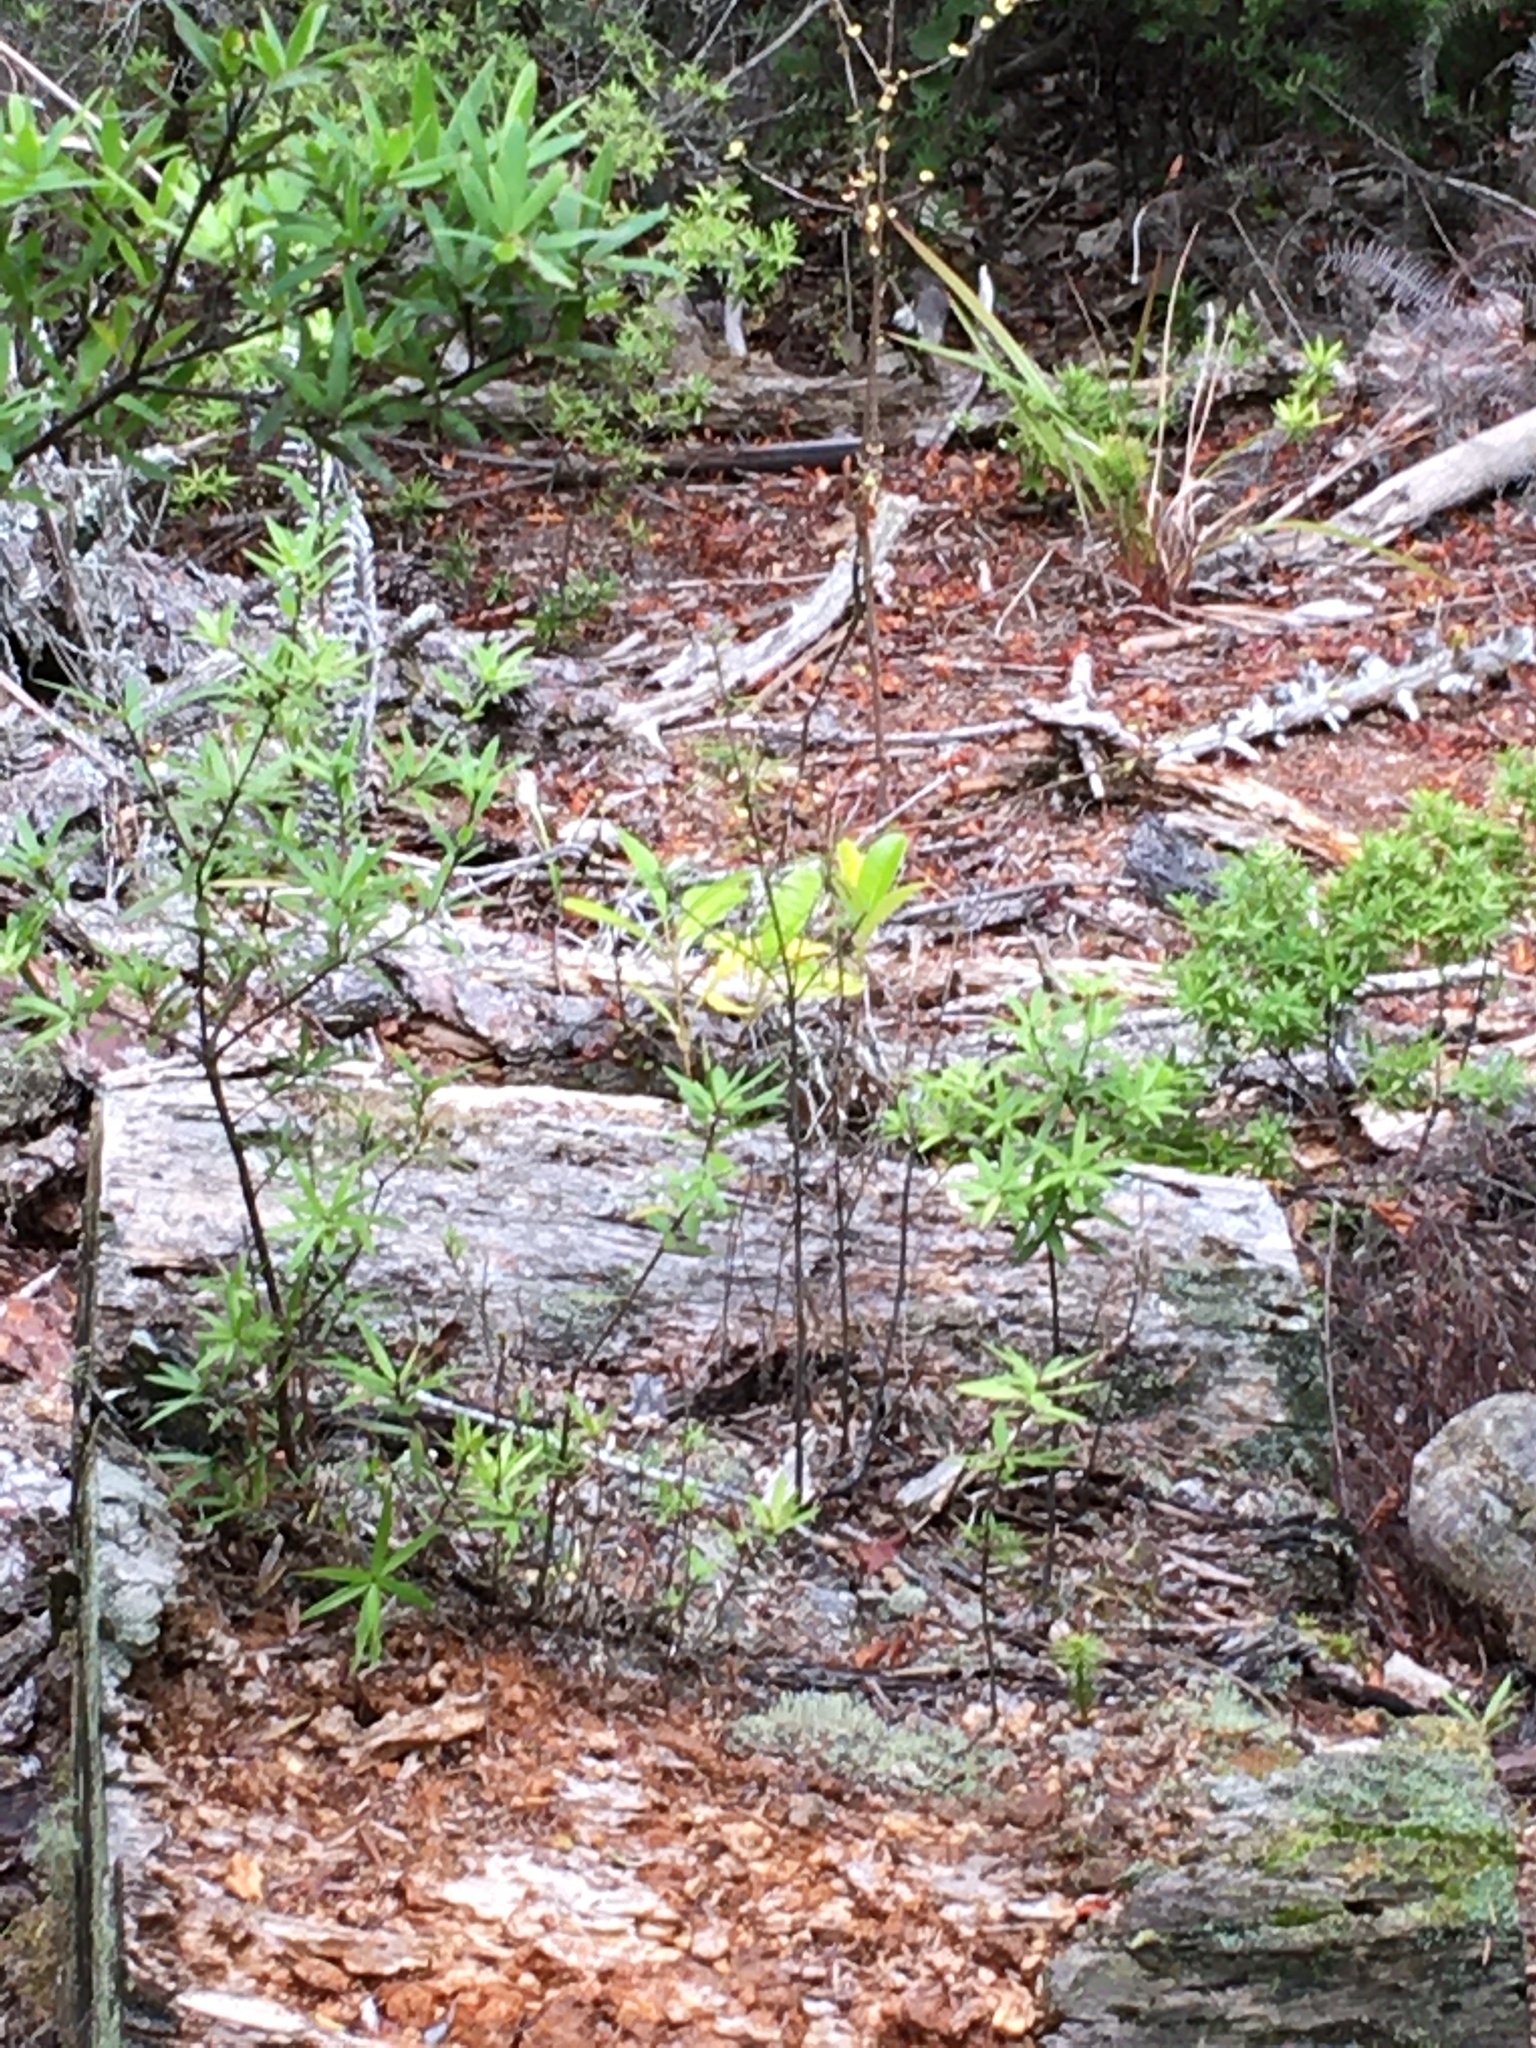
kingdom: Plantae
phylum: Tracheophyta
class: Magnoliopsida
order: Proteales
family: Proteaceae
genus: Toronia
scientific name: Toronia toru
